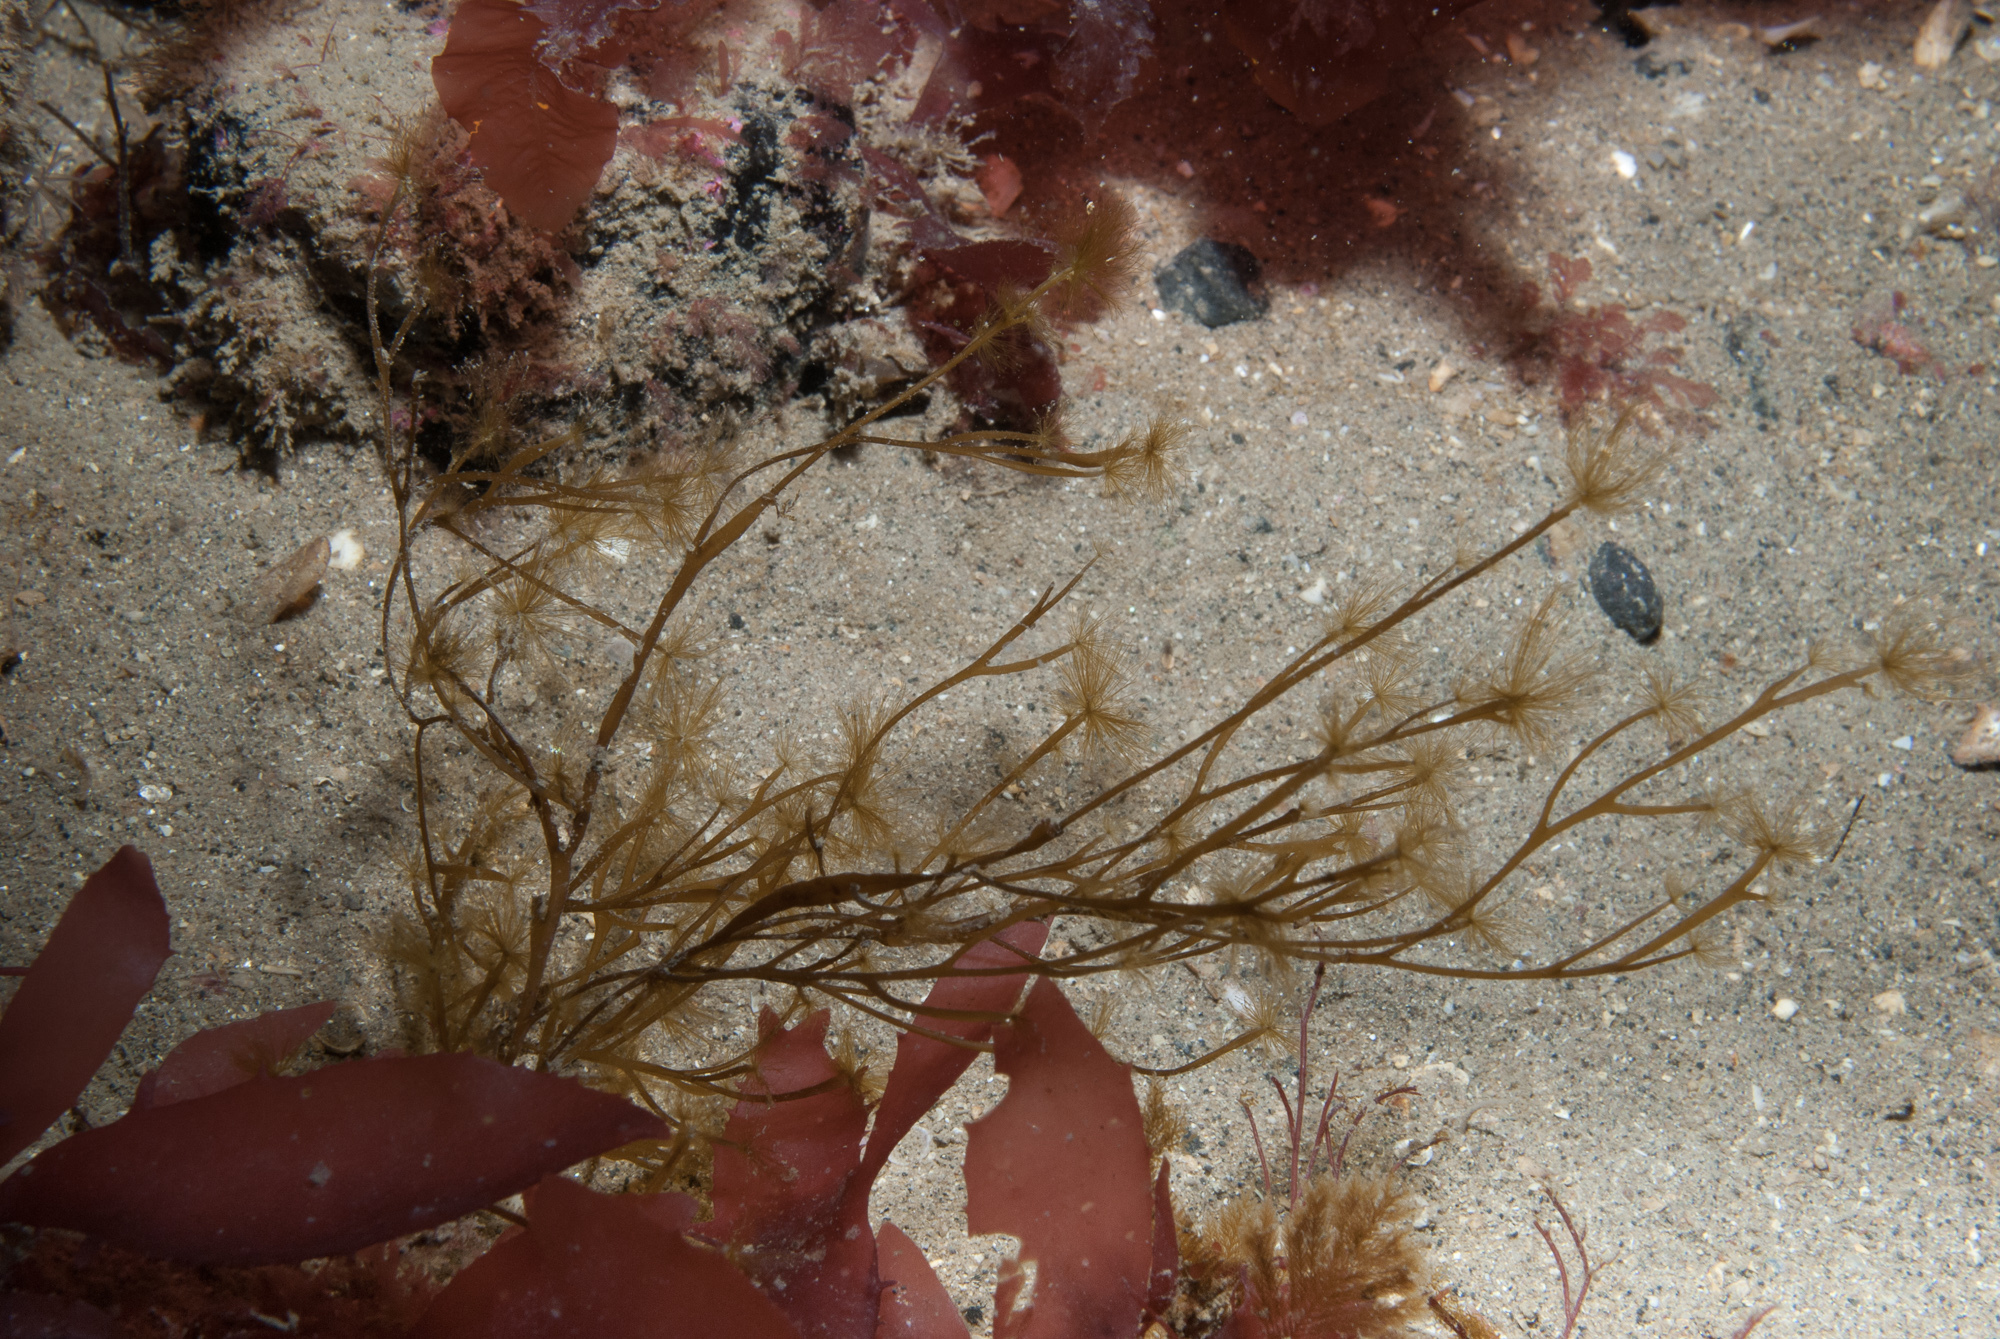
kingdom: Chromista
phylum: Ochrophyta
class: Phaeophyceae
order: Sporochnales
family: Sporochnaceae
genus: Carpomitra
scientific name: Carpomitra costata
